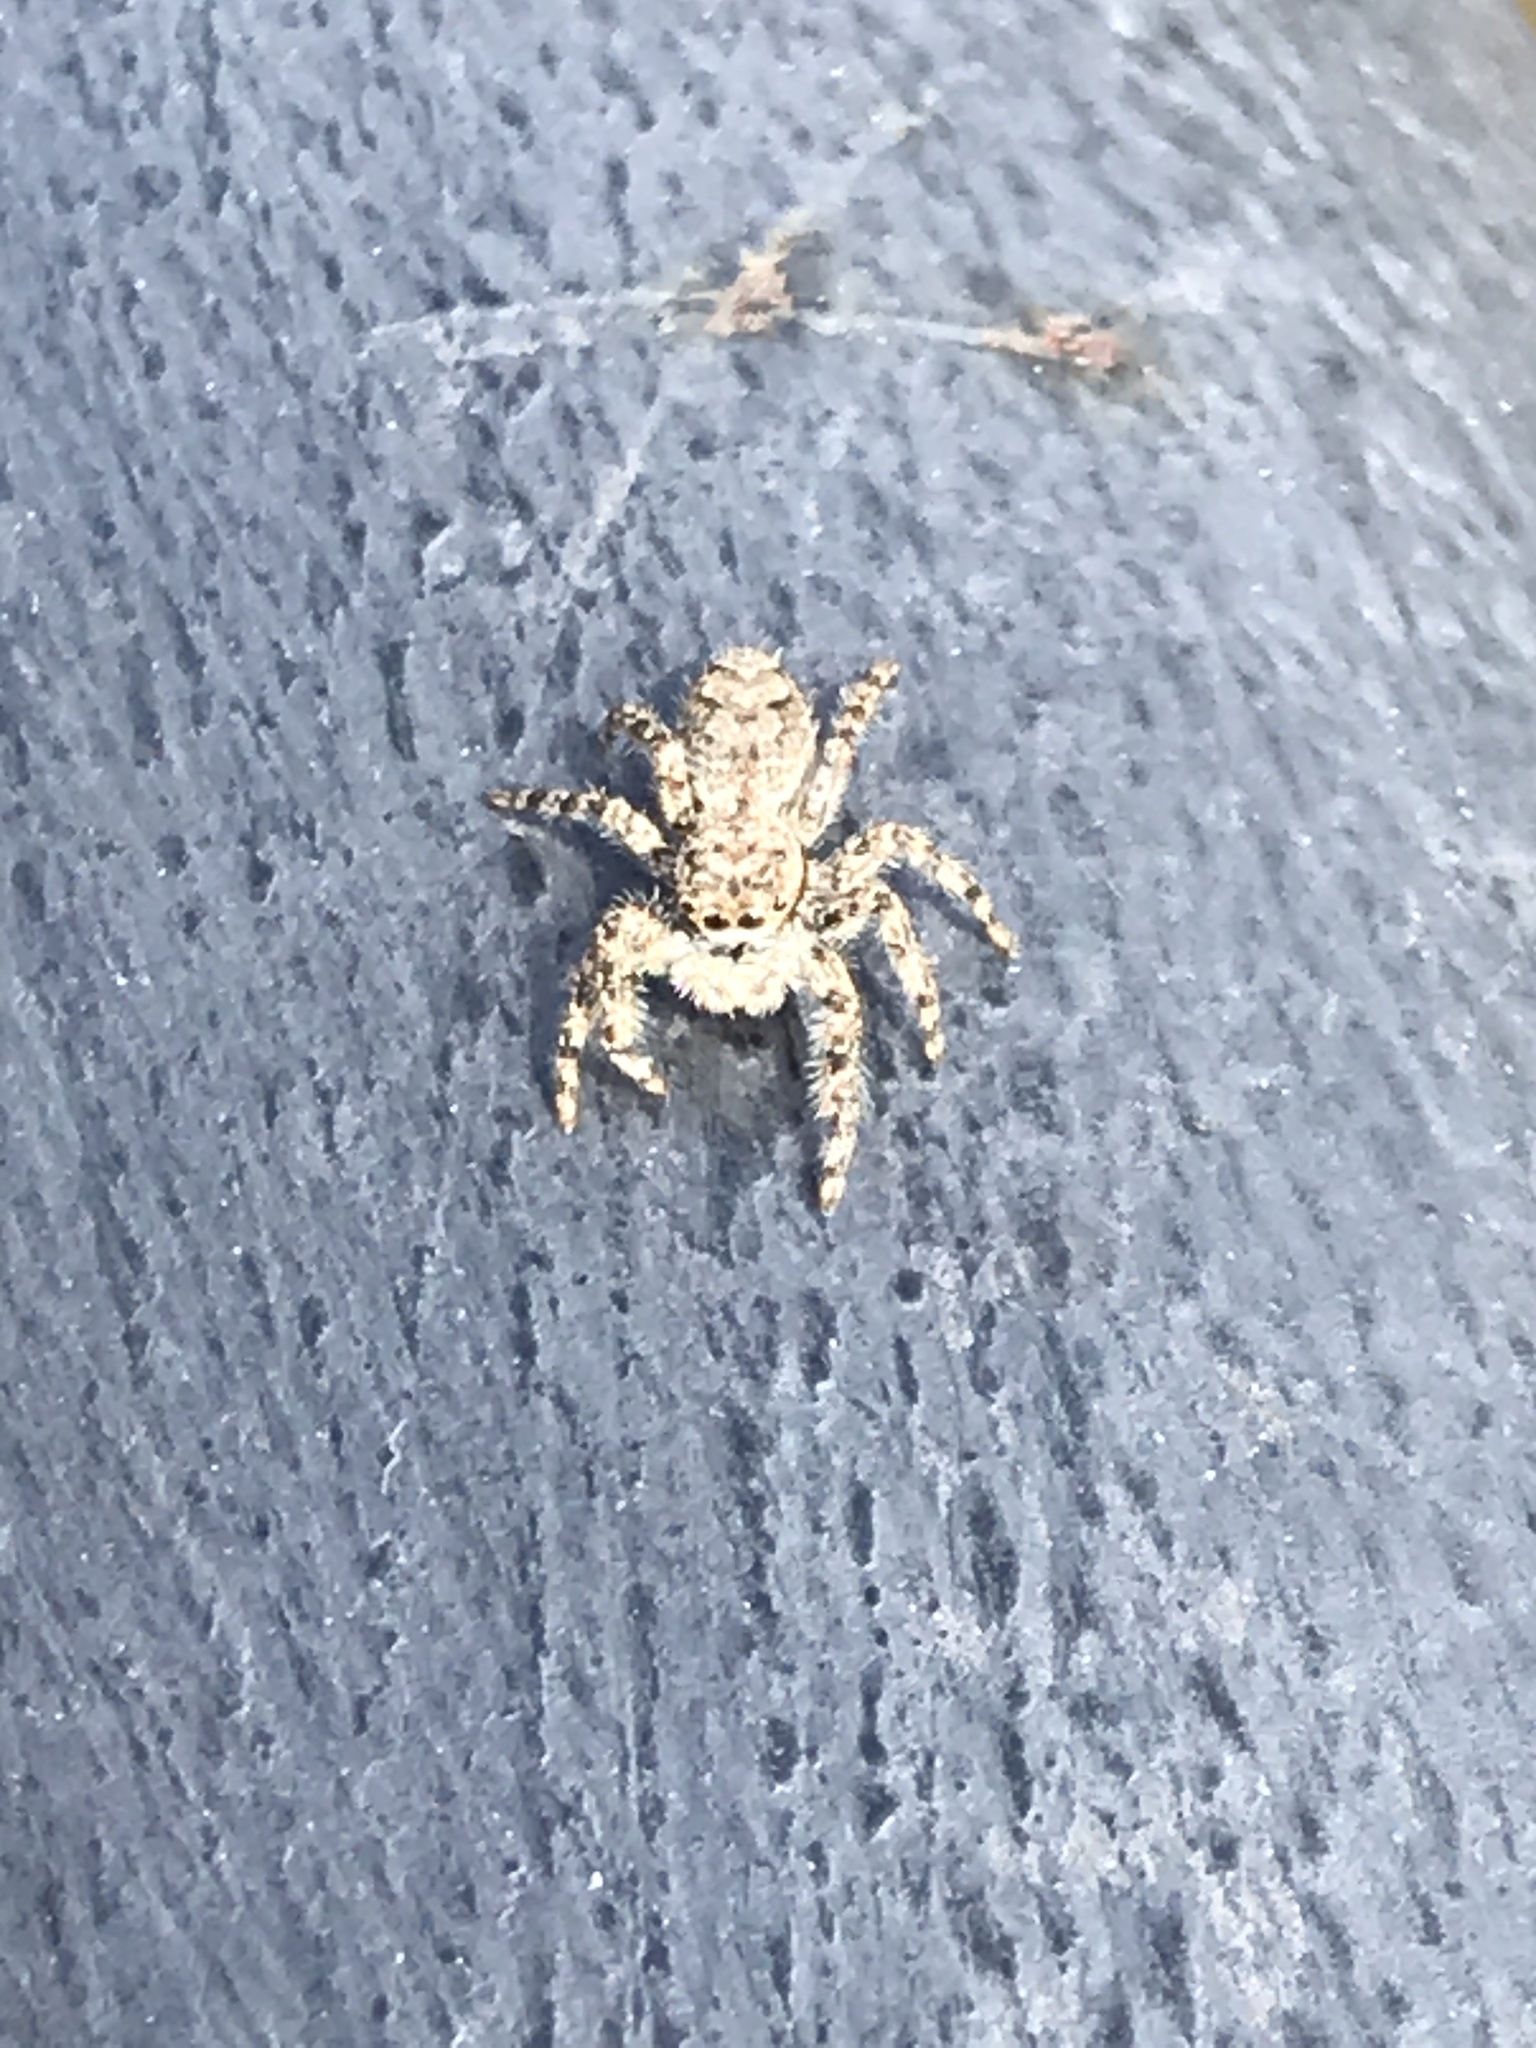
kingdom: Animalia
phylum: Arthropoda
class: Arachnida
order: Araneae
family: Salticidae
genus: Platycryptus
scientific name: Platycryptus undatus
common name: Tan jumping spider
